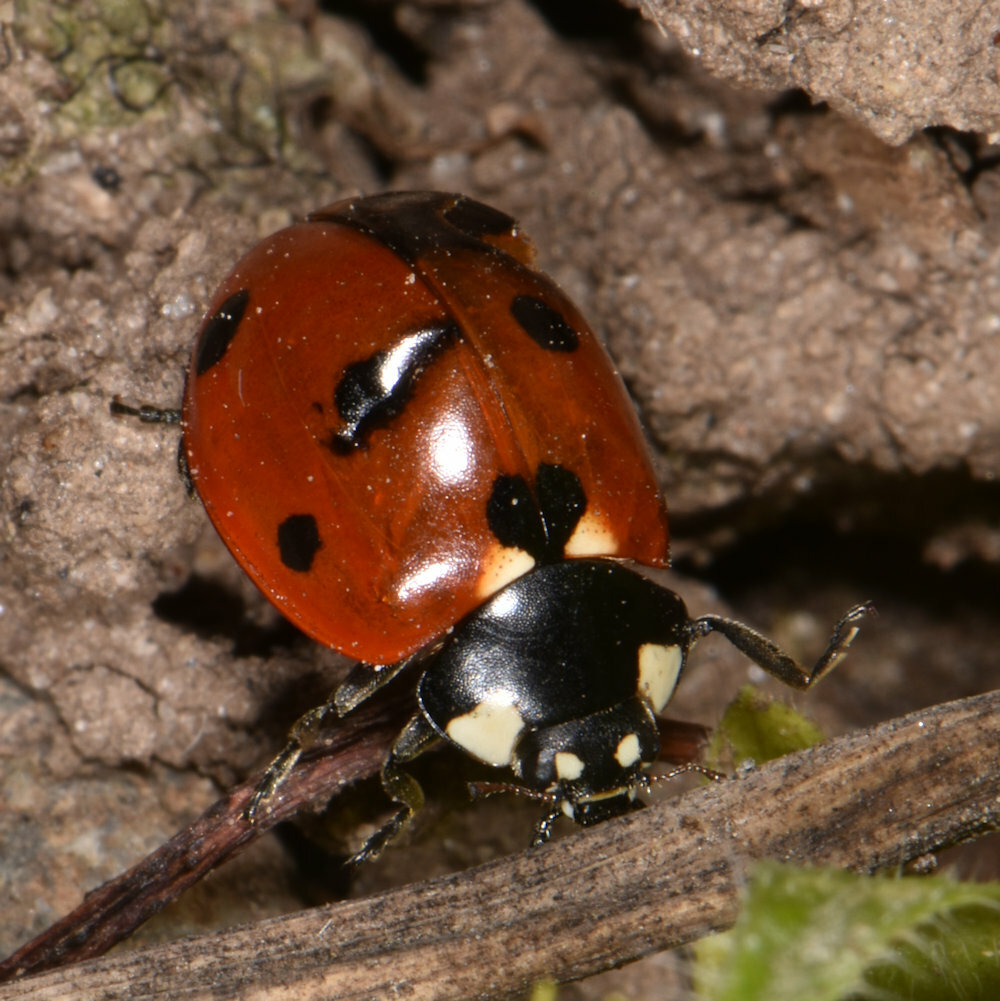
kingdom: Animalia
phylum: Arthropoda
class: Insecta
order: Coleoptera
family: Coccinellidae
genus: Coccinella
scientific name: Coccinella septempunctata
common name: Sevenspotted lady beetle
